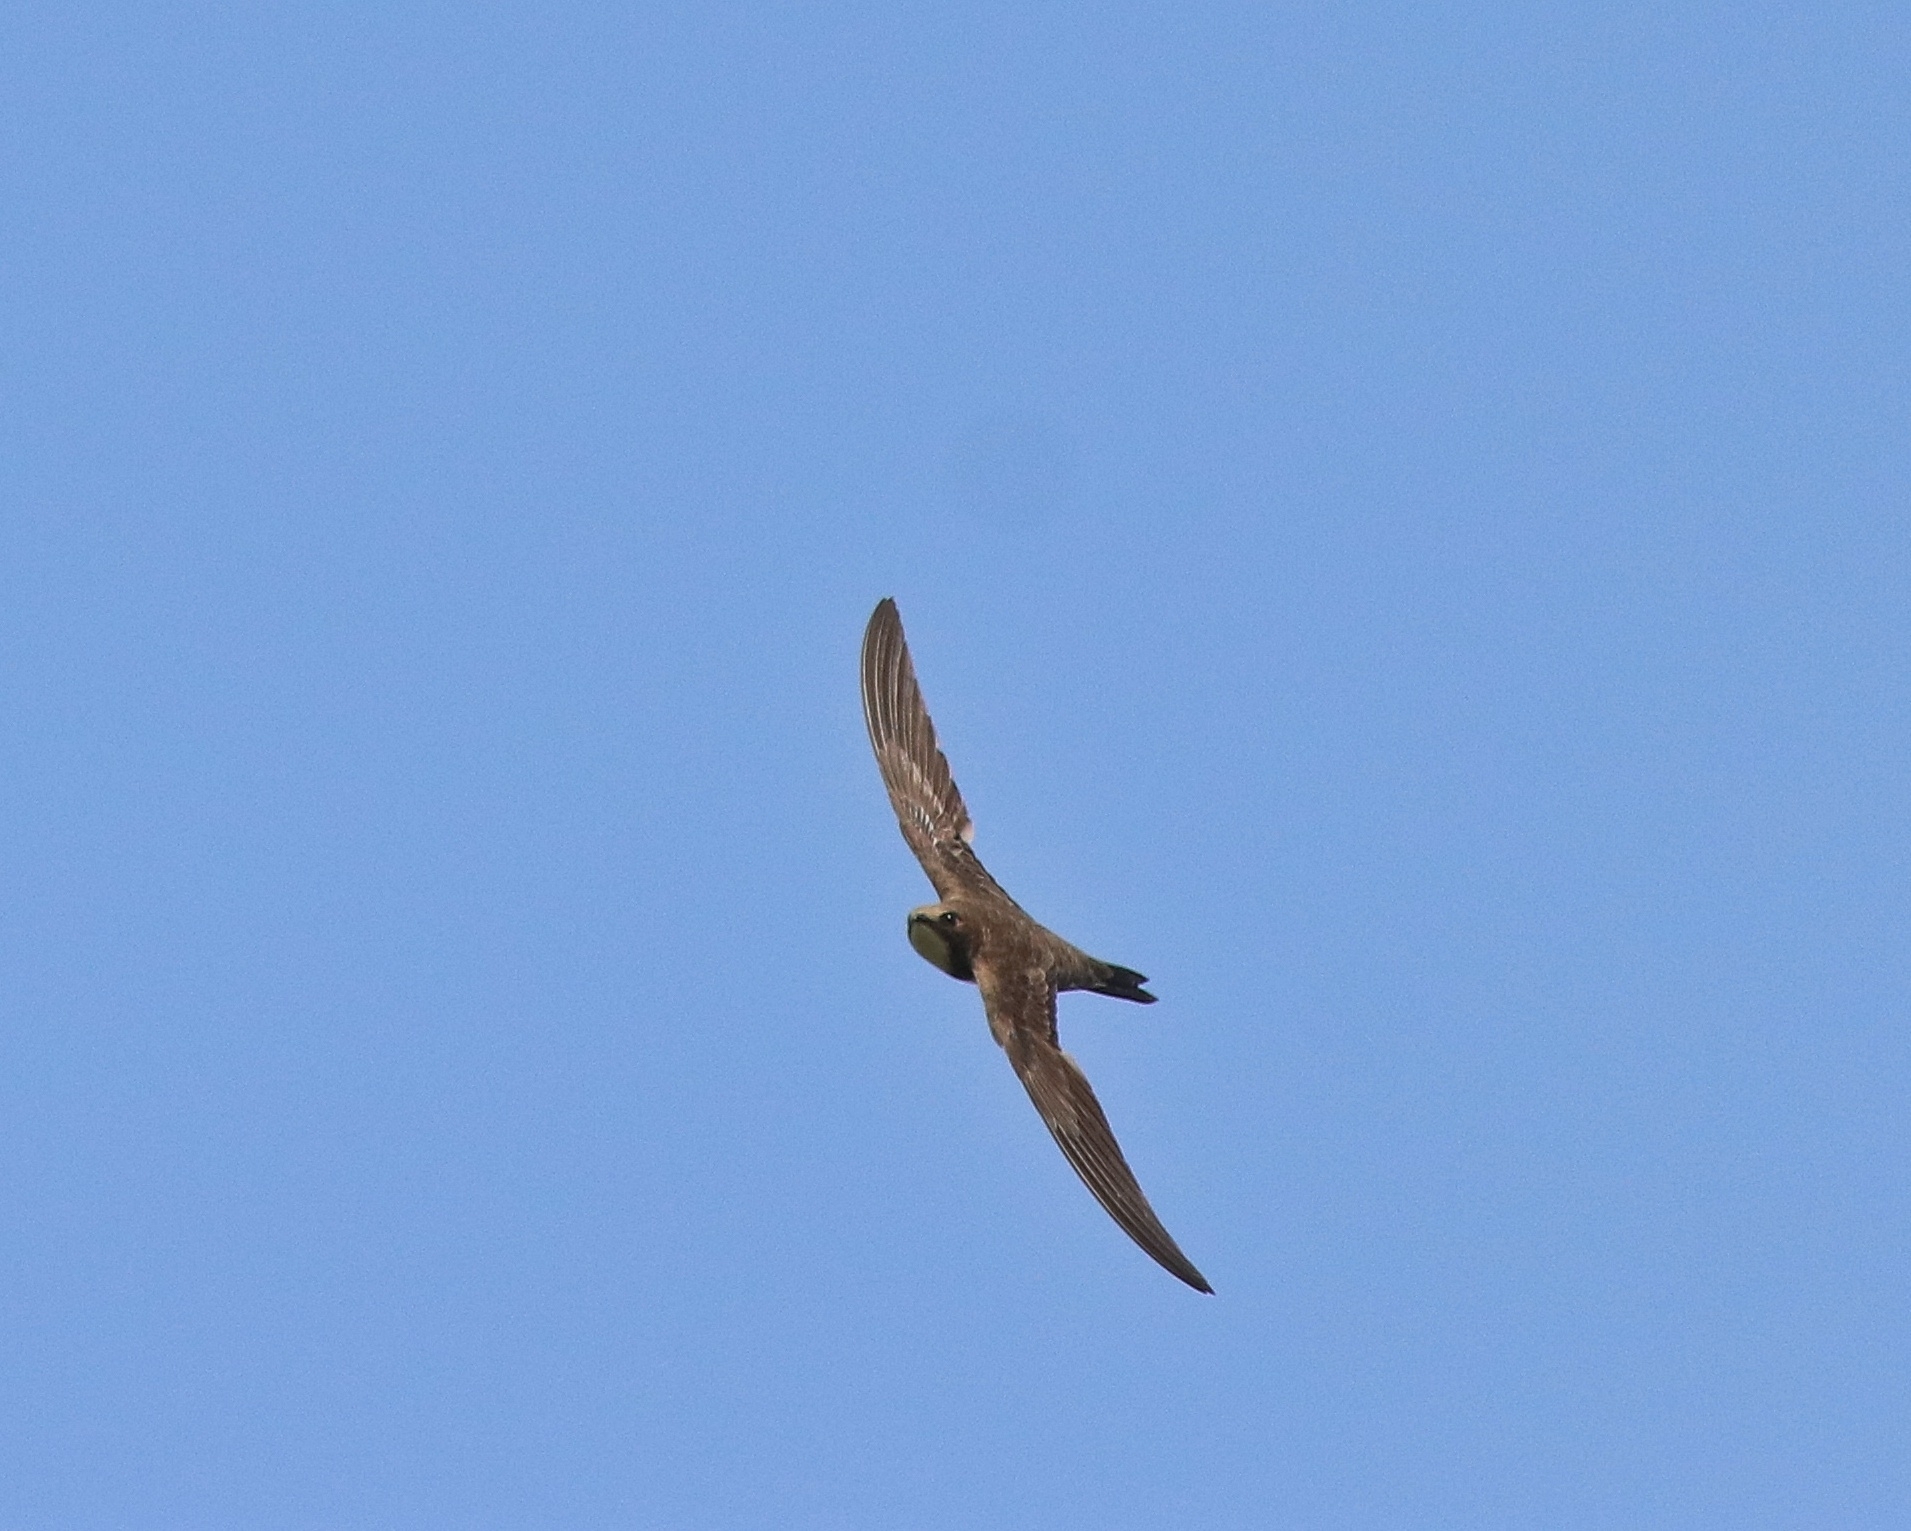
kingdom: Animalia
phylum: Chordata
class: Aves
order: Apodiformes
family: Apodidae
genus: Tachymarptis
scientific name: Tachymarptis melba
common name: Alpine swift
